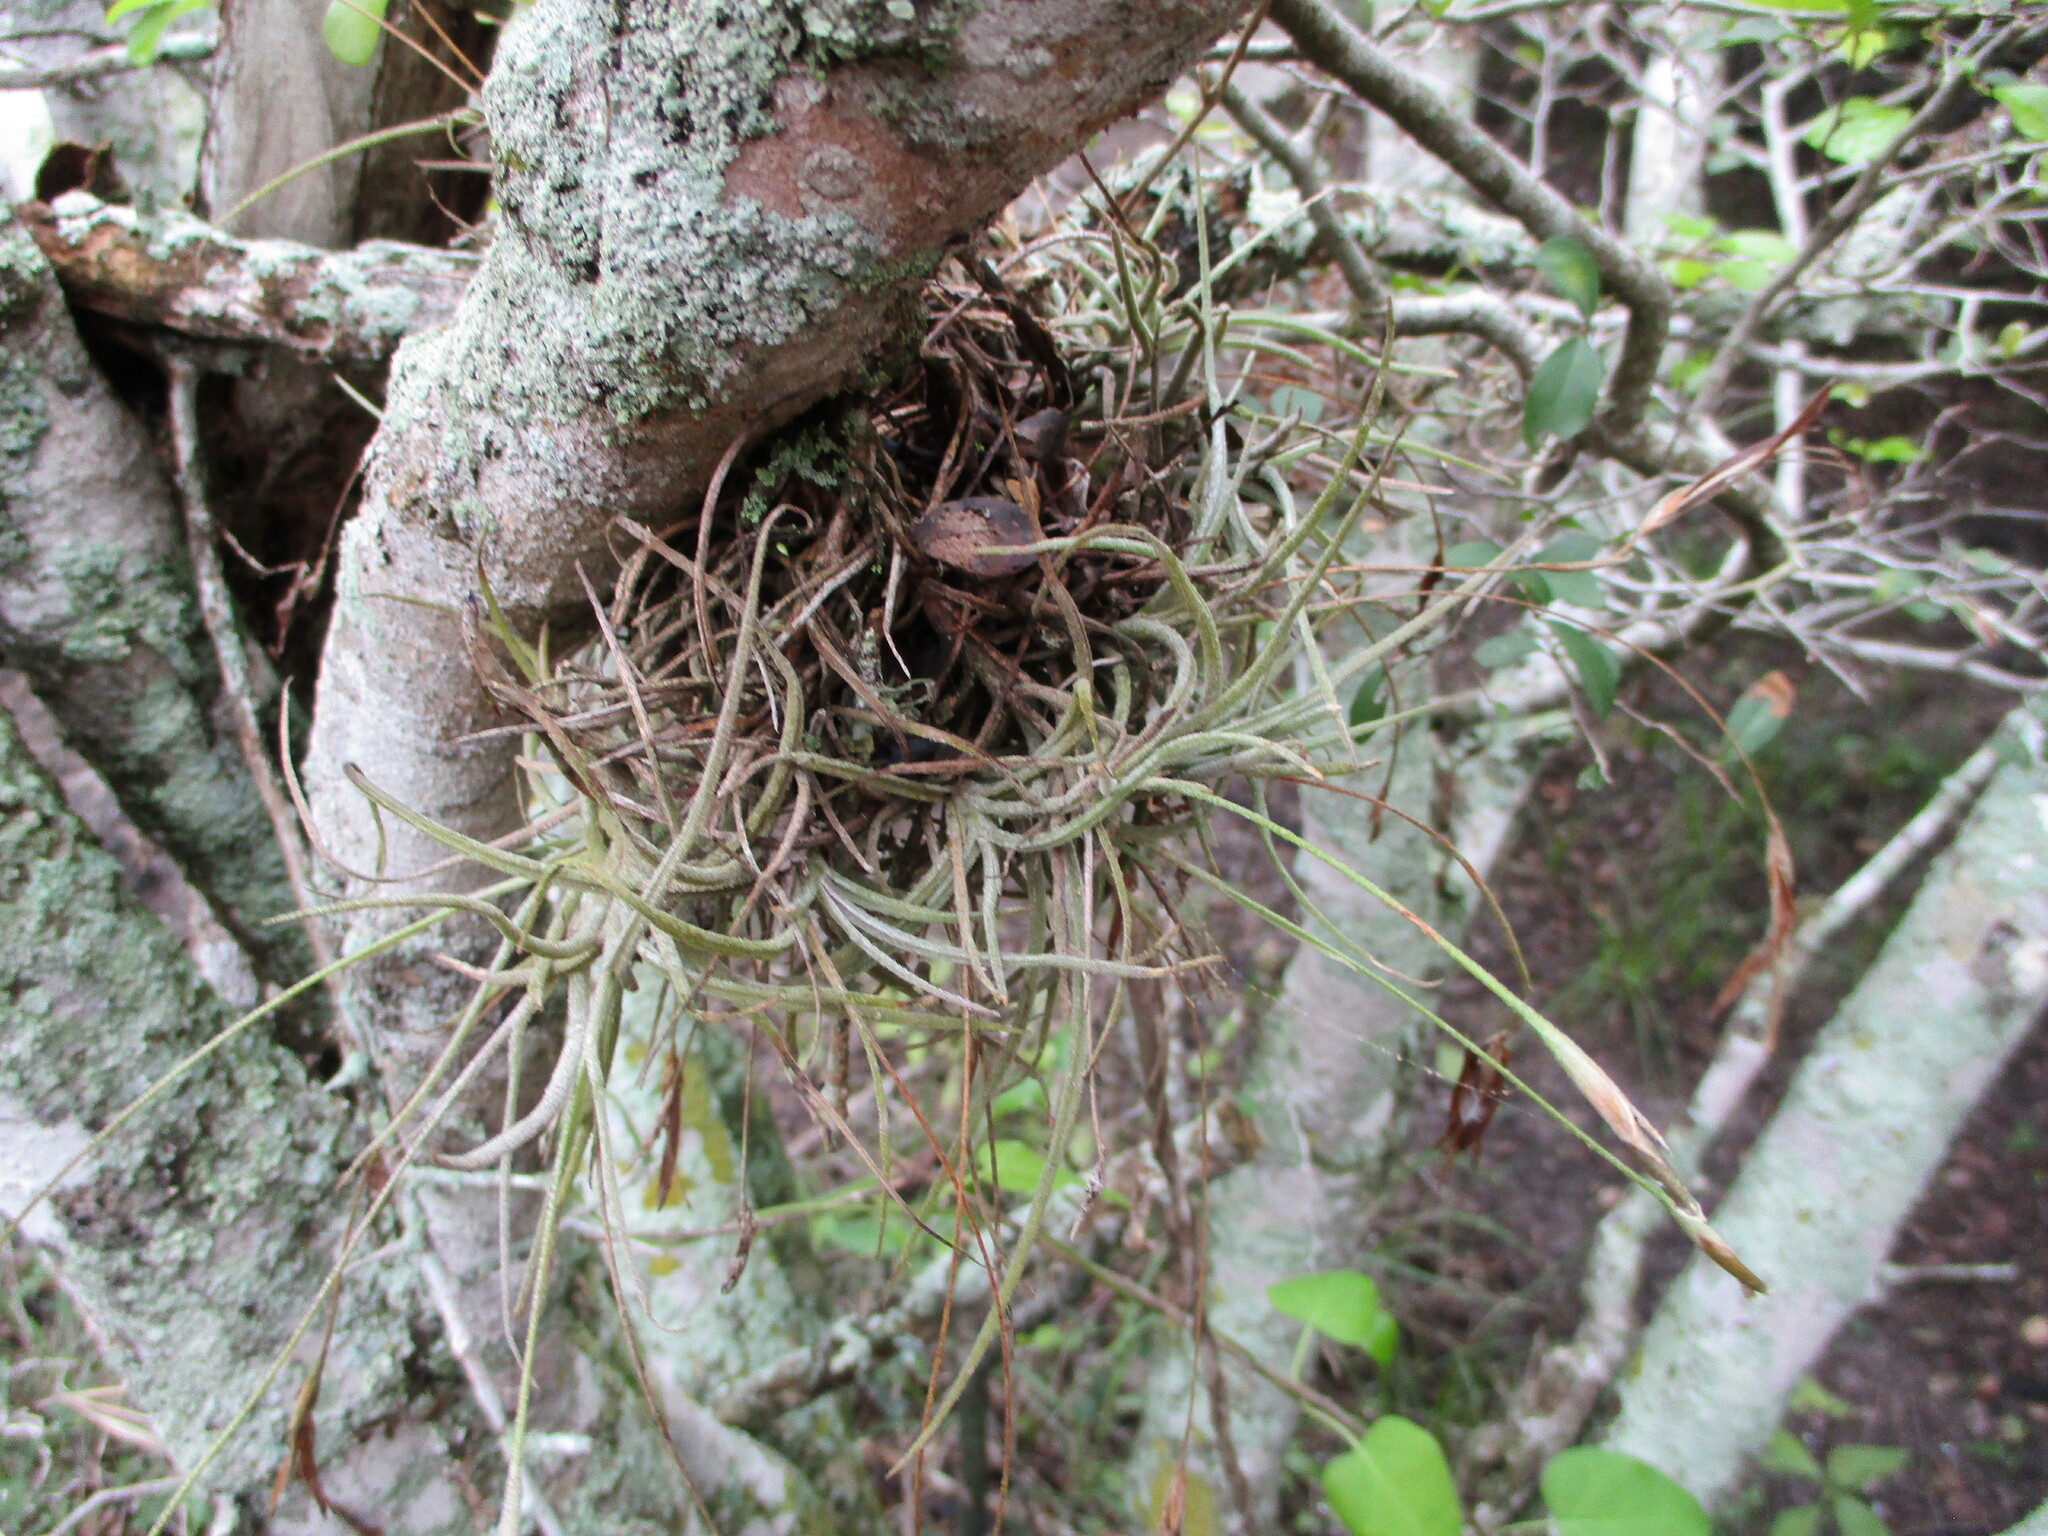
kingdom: Plantae
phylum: Tracheophyta
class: Liliopsida
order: Poales
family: Bromeliaceae
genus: Tillandsia
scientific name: Tillandsia recurvata
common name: Small ballmoss
